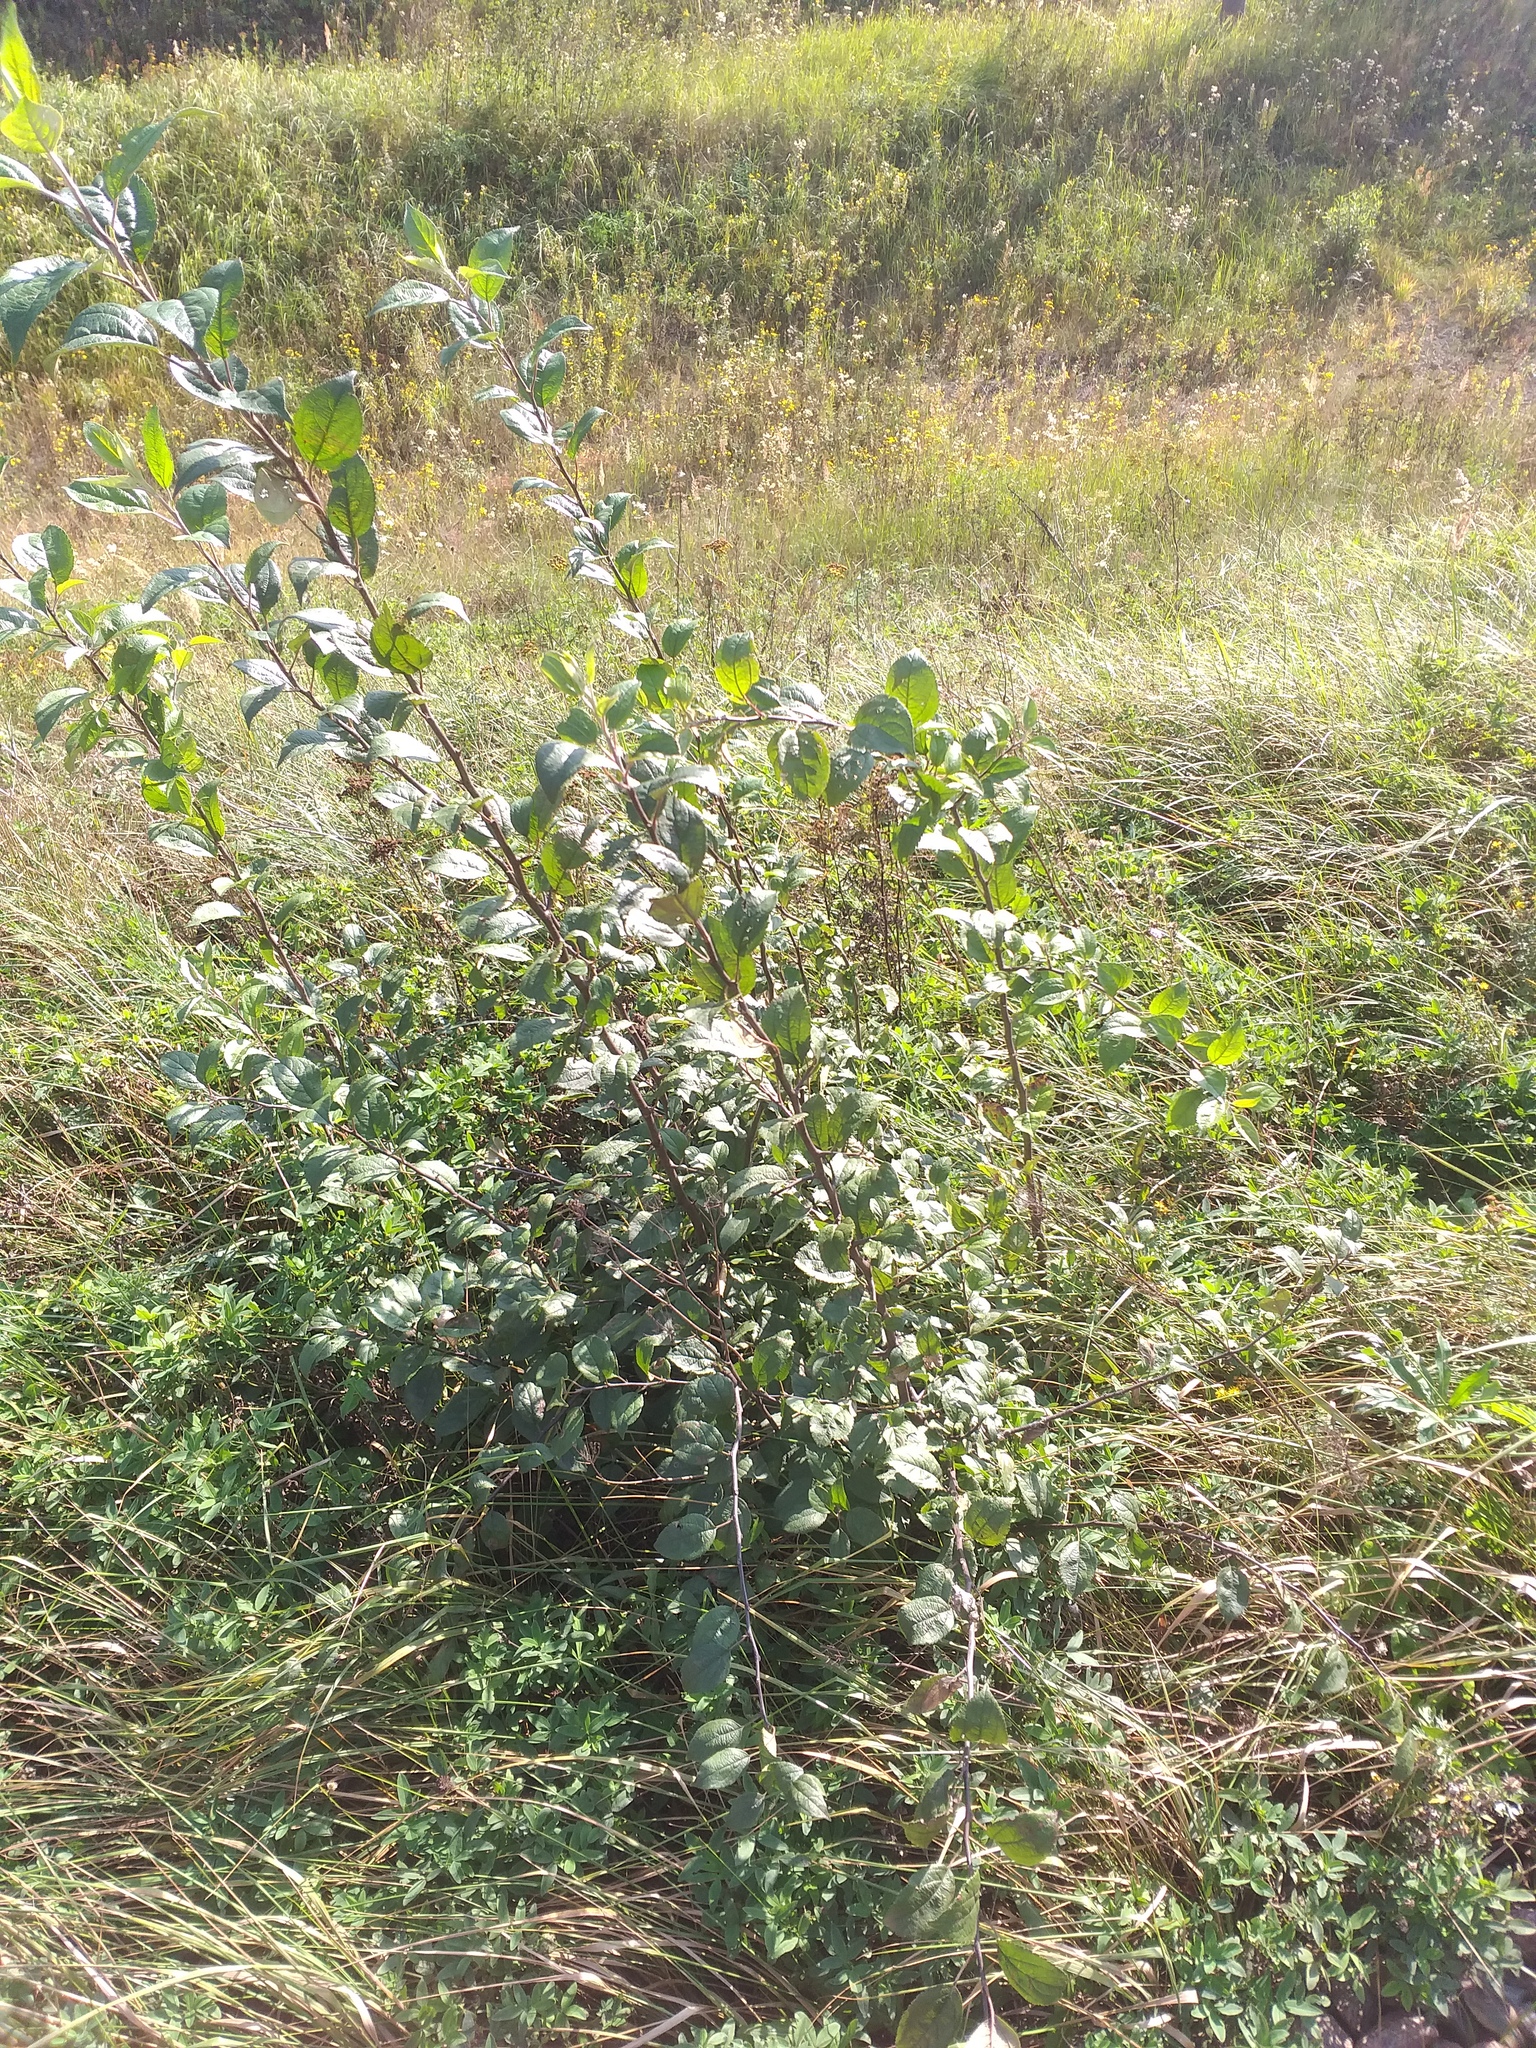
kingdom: Plantae
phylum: Tracheophyta
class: Magnoliopsida
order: Rosales
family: Rosaceae
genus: Malus
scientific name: Malus domestica
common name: Apple
